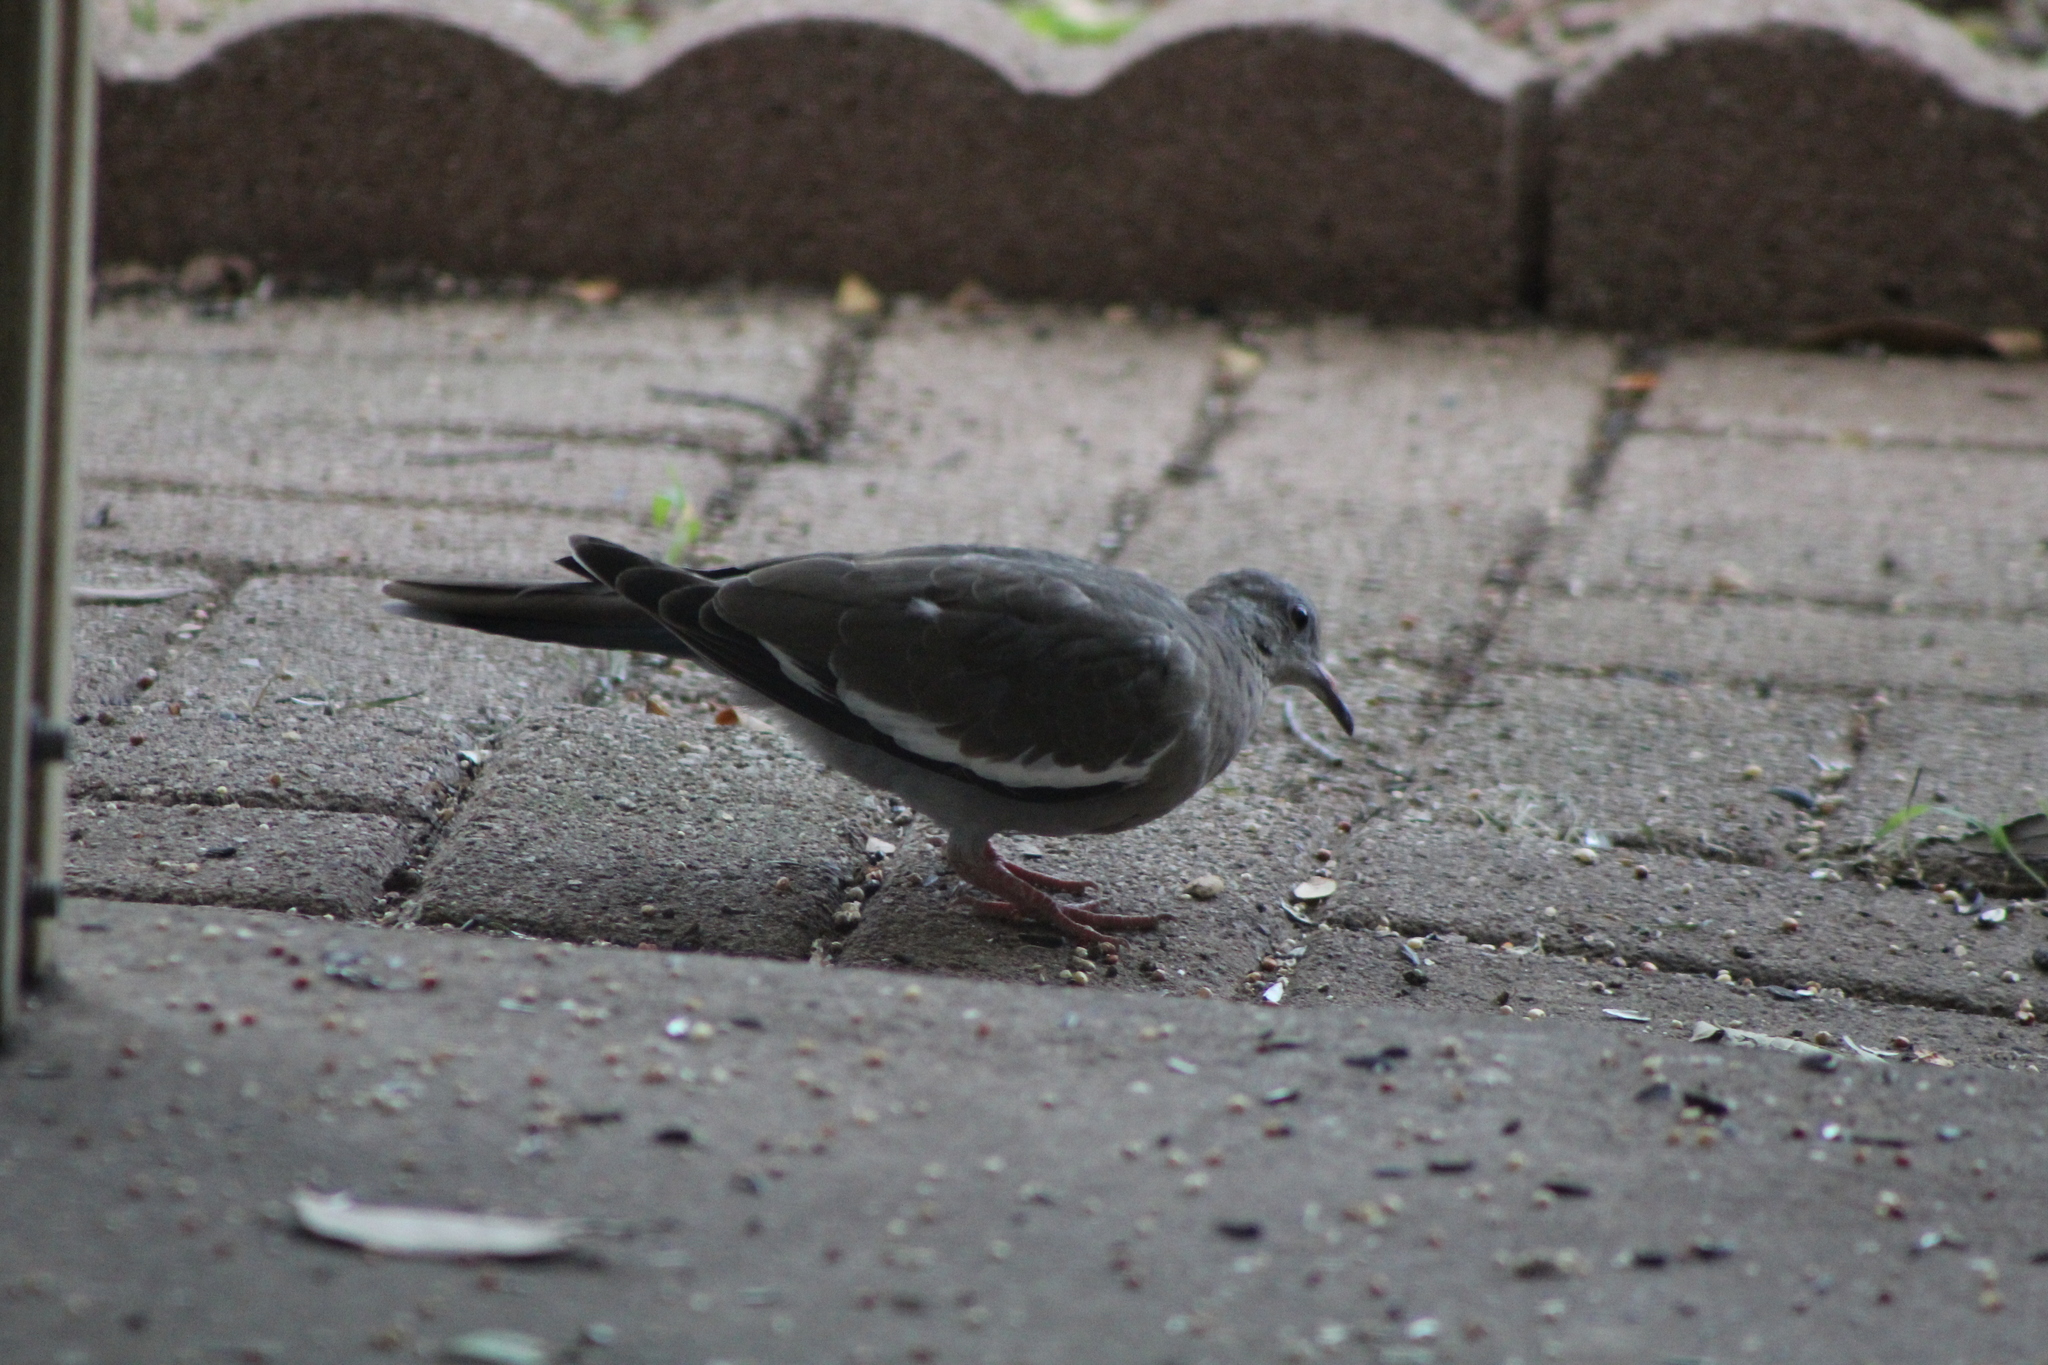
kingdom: Animalia
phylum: Chordata
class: Aves
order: Columbiformes
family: Columbidae
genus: Zenaida
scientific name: Zenaida asiatica
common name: White-winged dove
